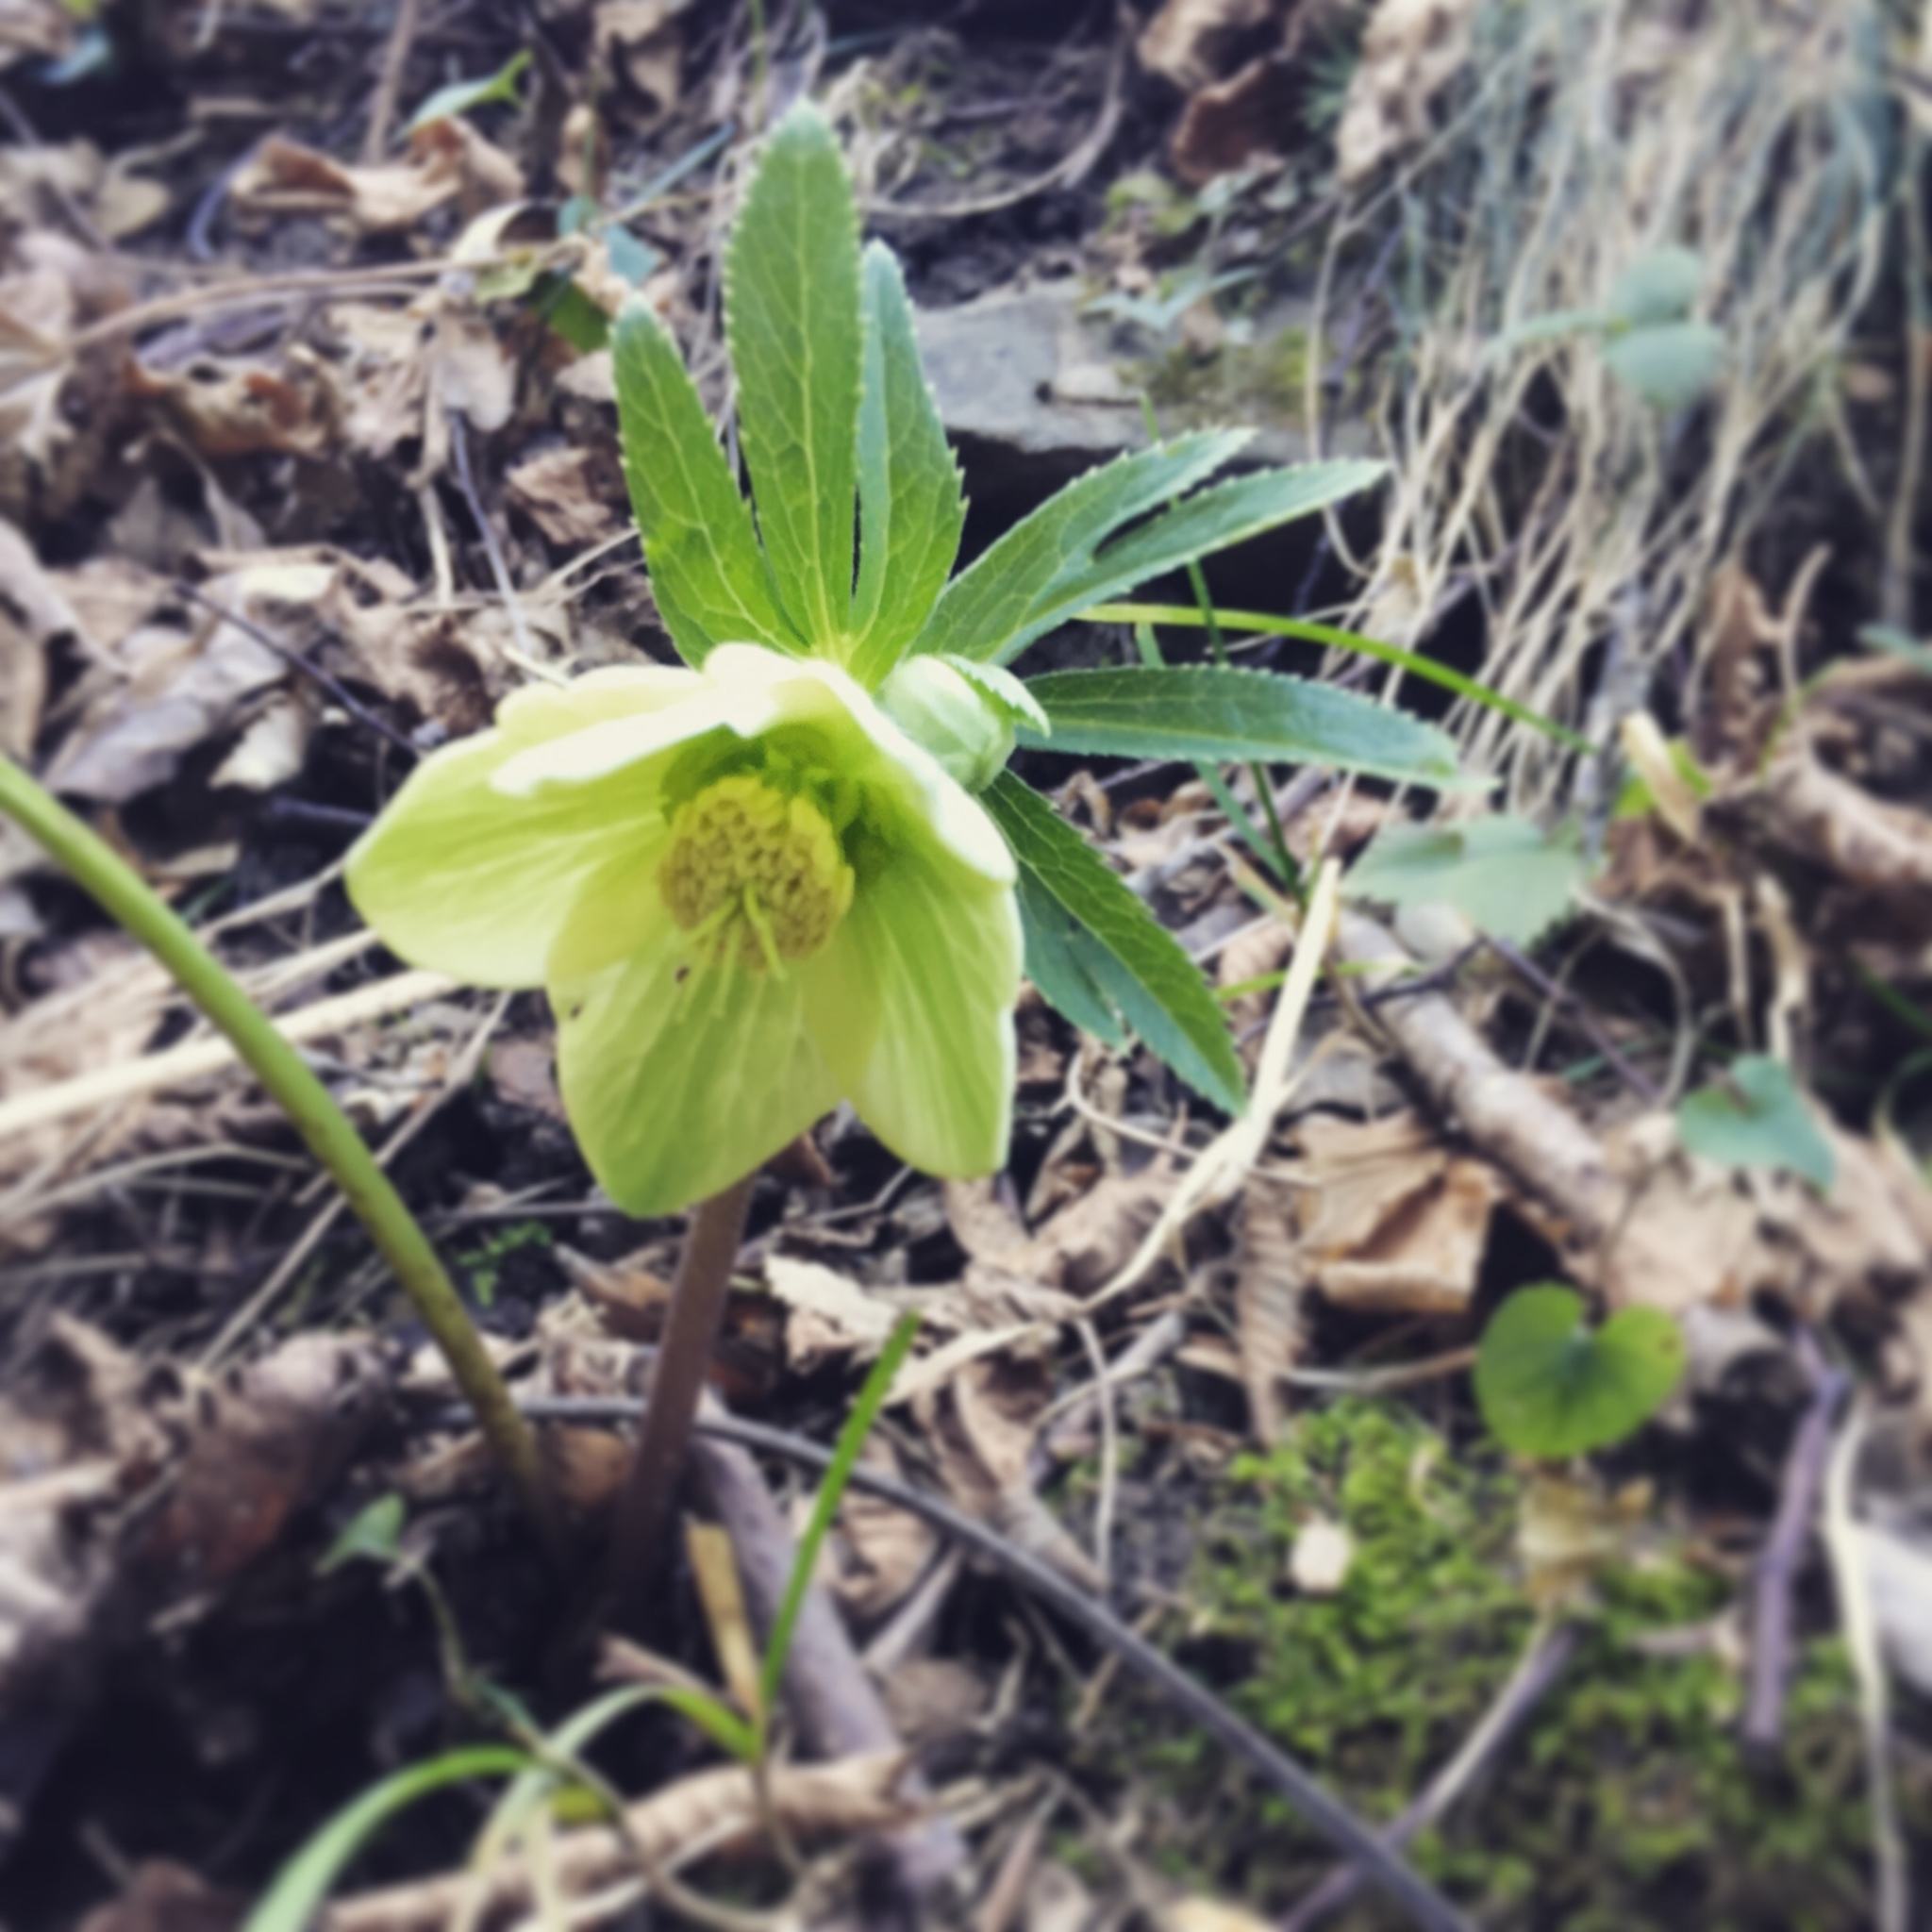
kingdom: Plantae
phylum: Tracheophyta
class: Magnoliopsida
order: Ranunculales
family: Ranunculaceae
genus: Helleborus
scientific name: Helleborus viridis
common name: Green hellebore
